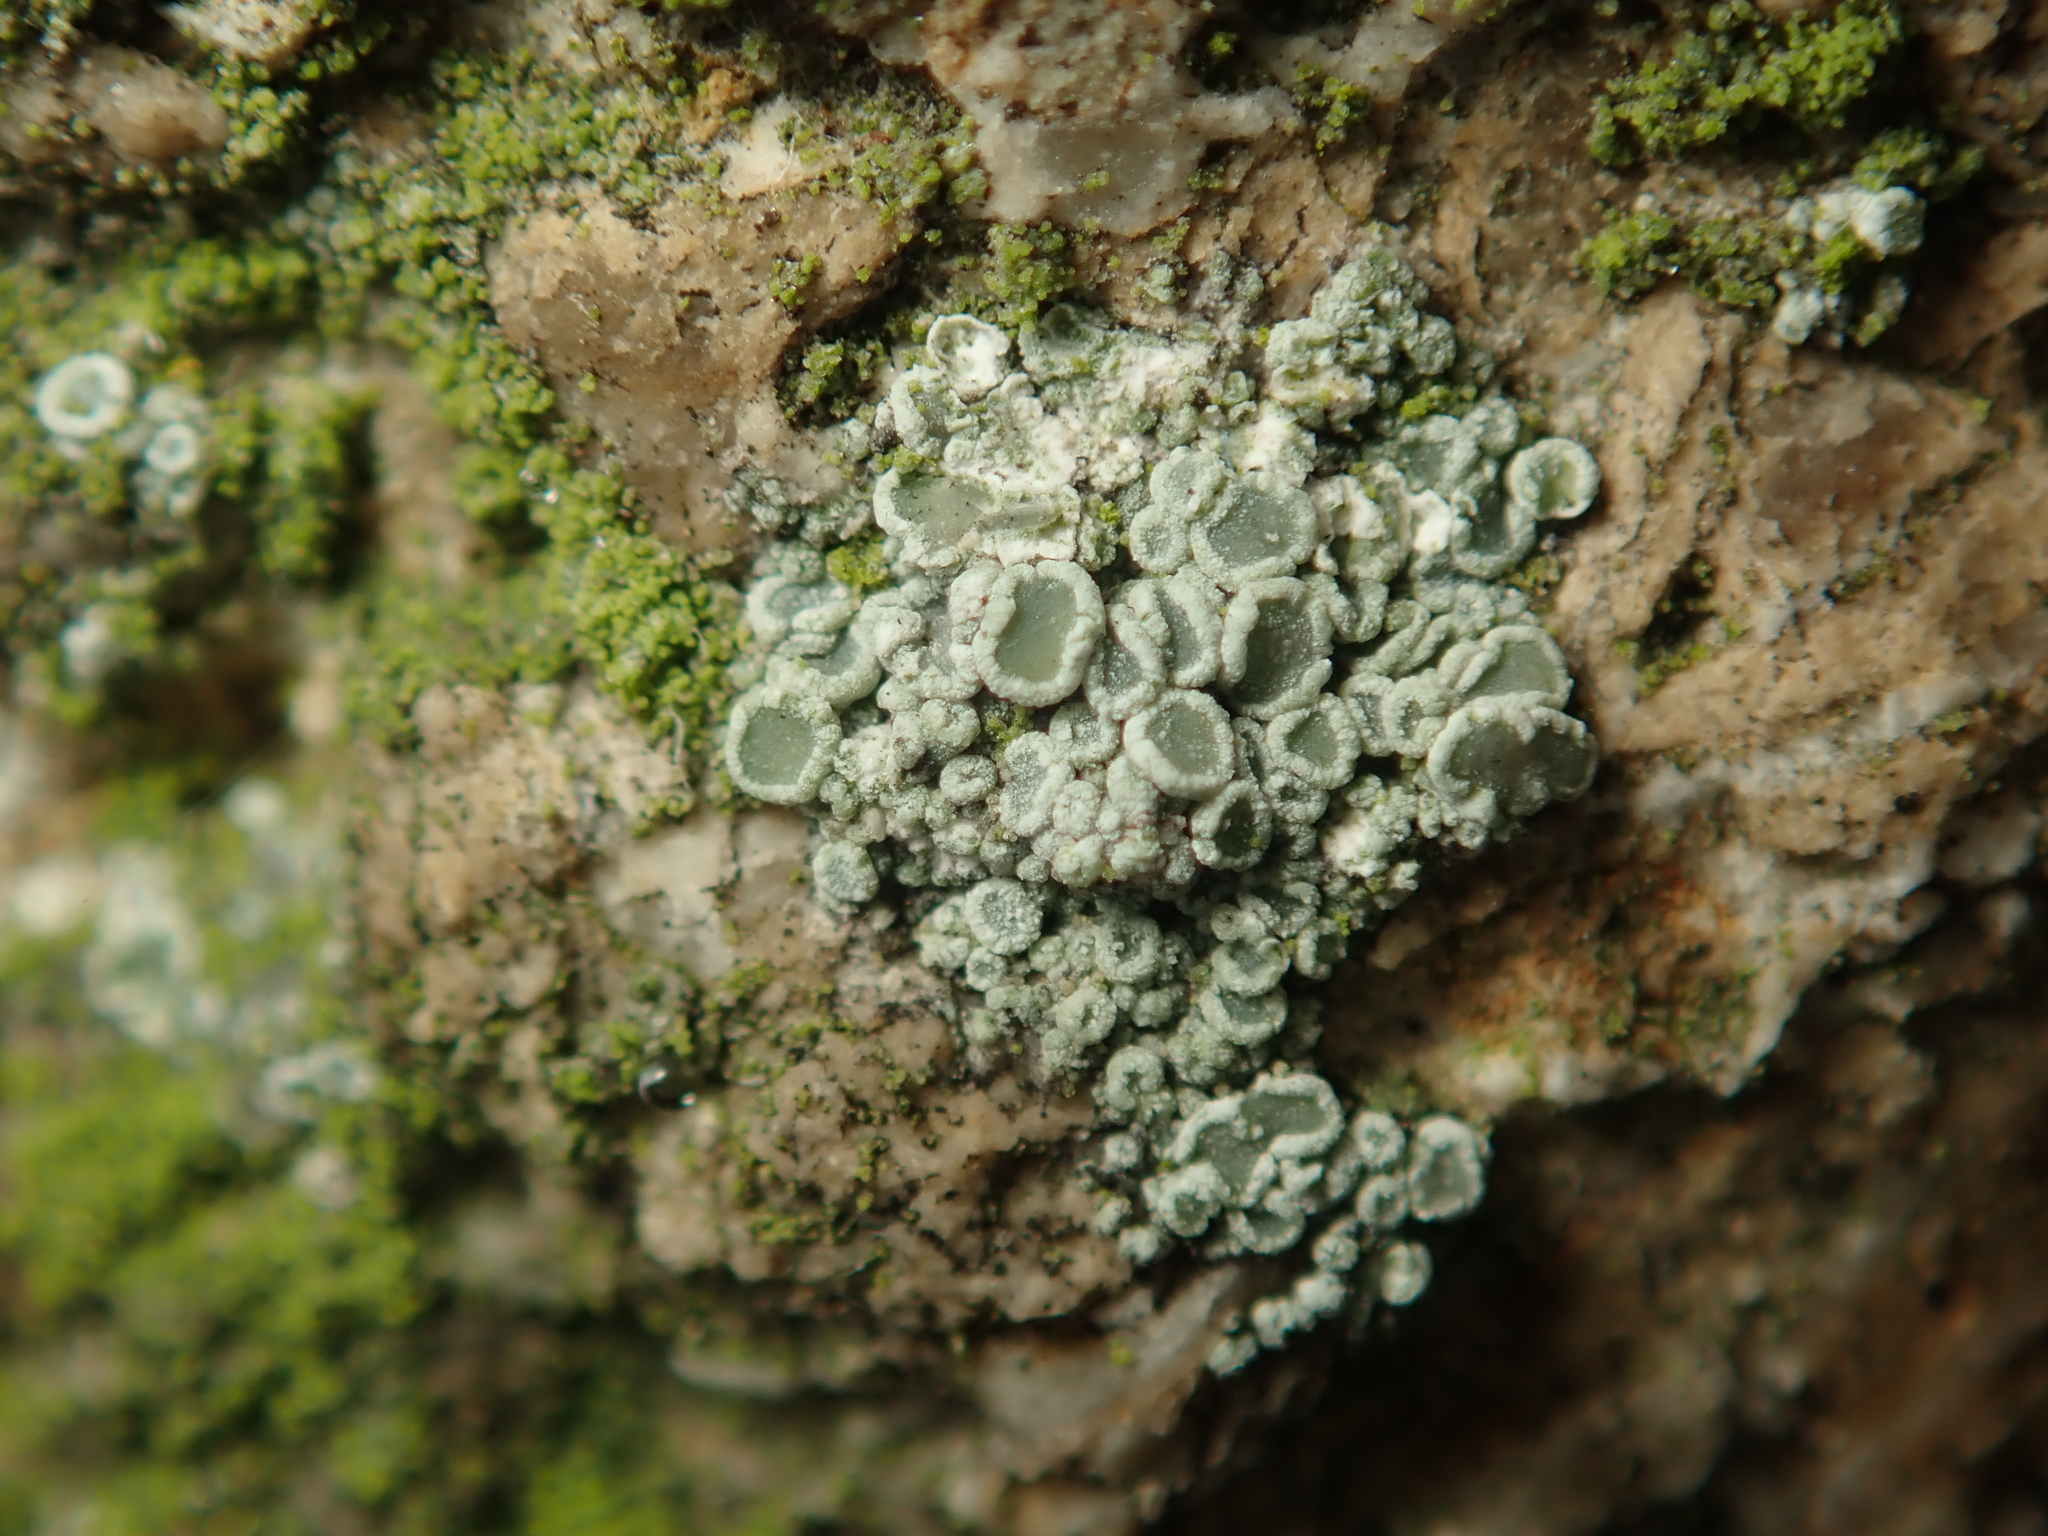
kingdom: Fungi
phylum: Ascomycota
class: Lecanoromycetes
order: Lecanorales
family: Lecanoraceae
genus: Polyozosia
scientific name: Polyozosia albescens
